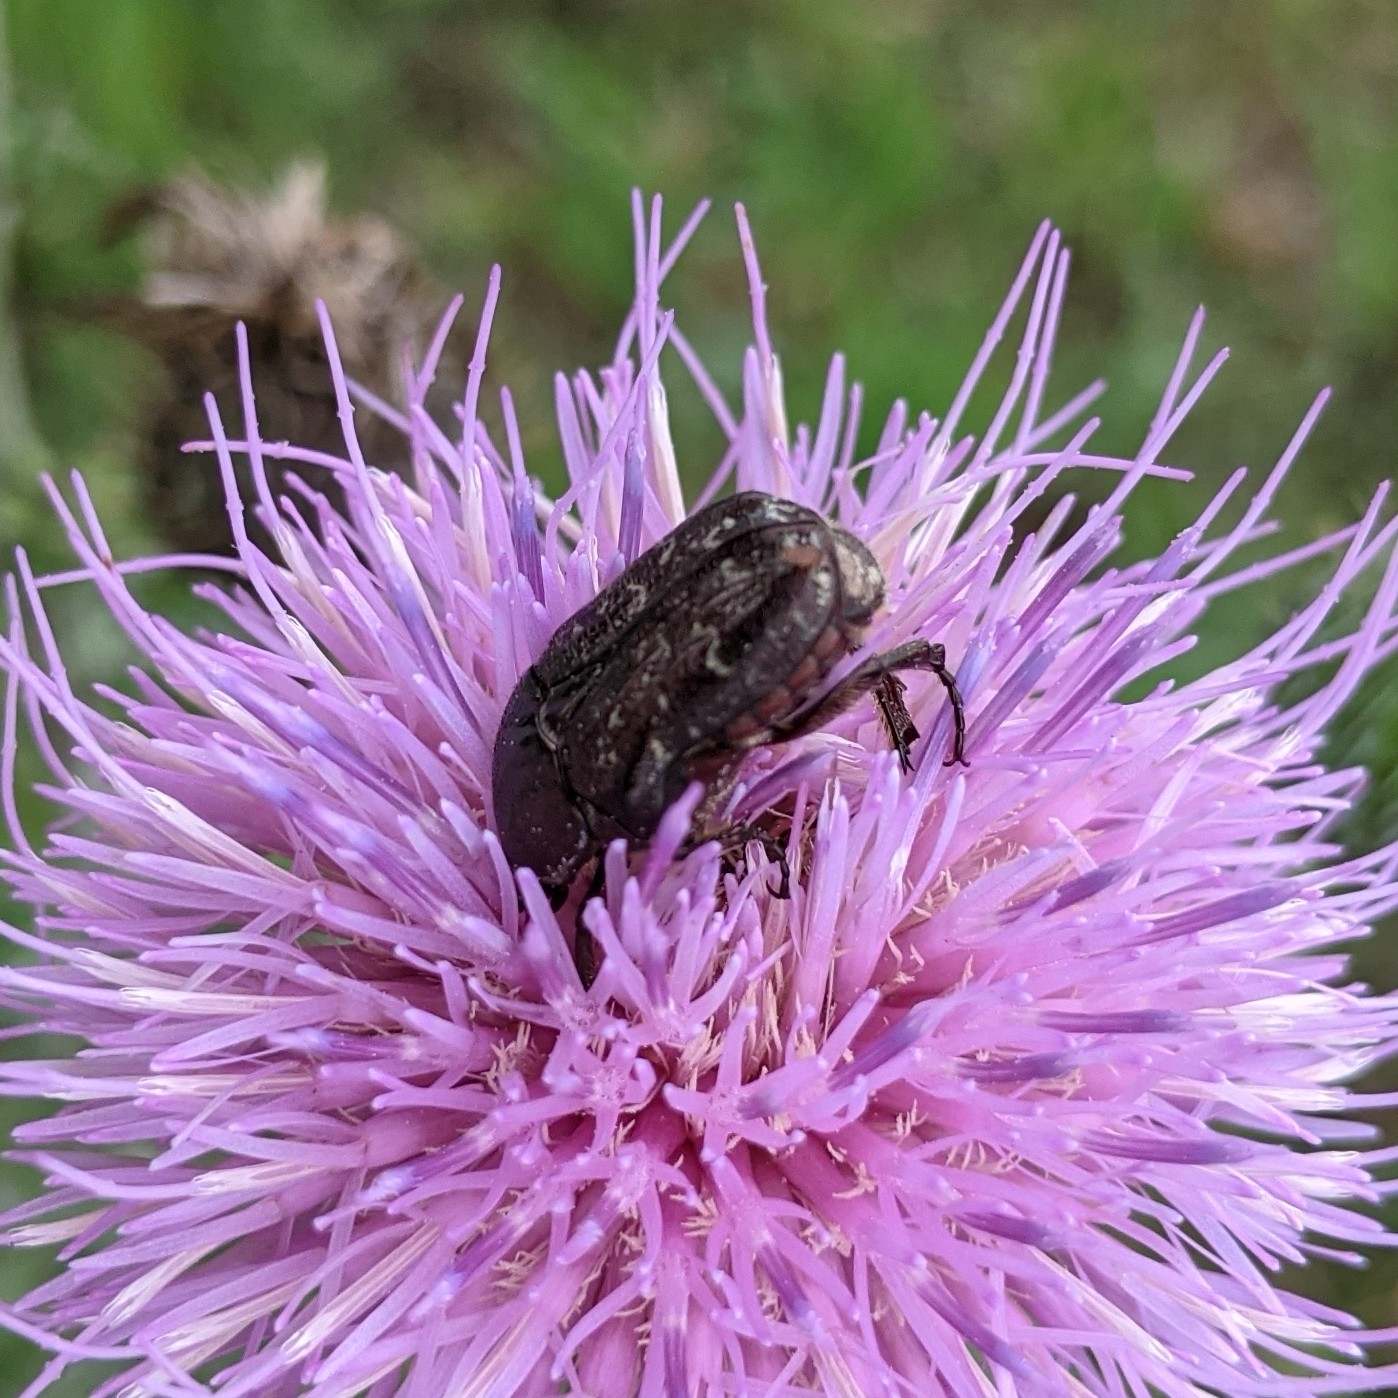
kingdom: Animalia
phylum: Arthropoda
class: Insecta
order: Coleoptera
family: Scarabaeidae
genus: Euphoria
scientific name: Euphoria sepulcralis
